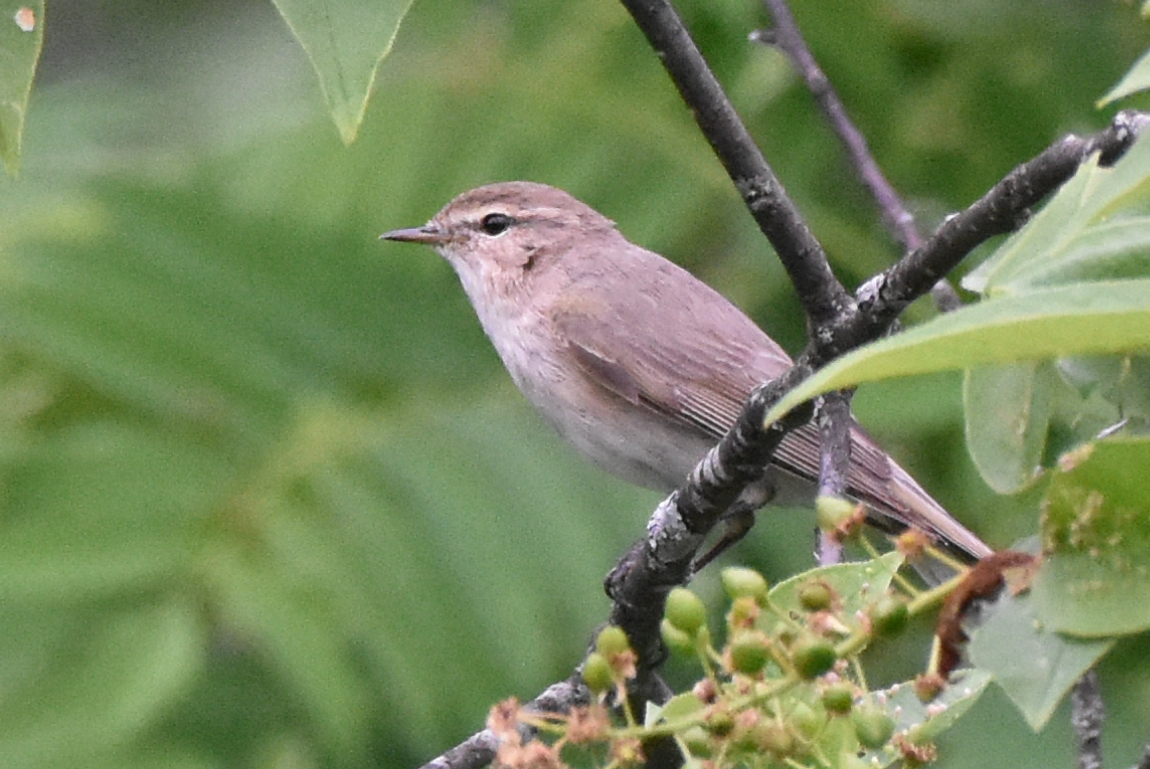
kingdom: Animalia
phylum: Chordata
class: Aves
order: Passeriformes
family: Phylloscopidae
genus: Phylloscopus
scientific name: Phylloscopus collybita
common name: Common chiffchaff
